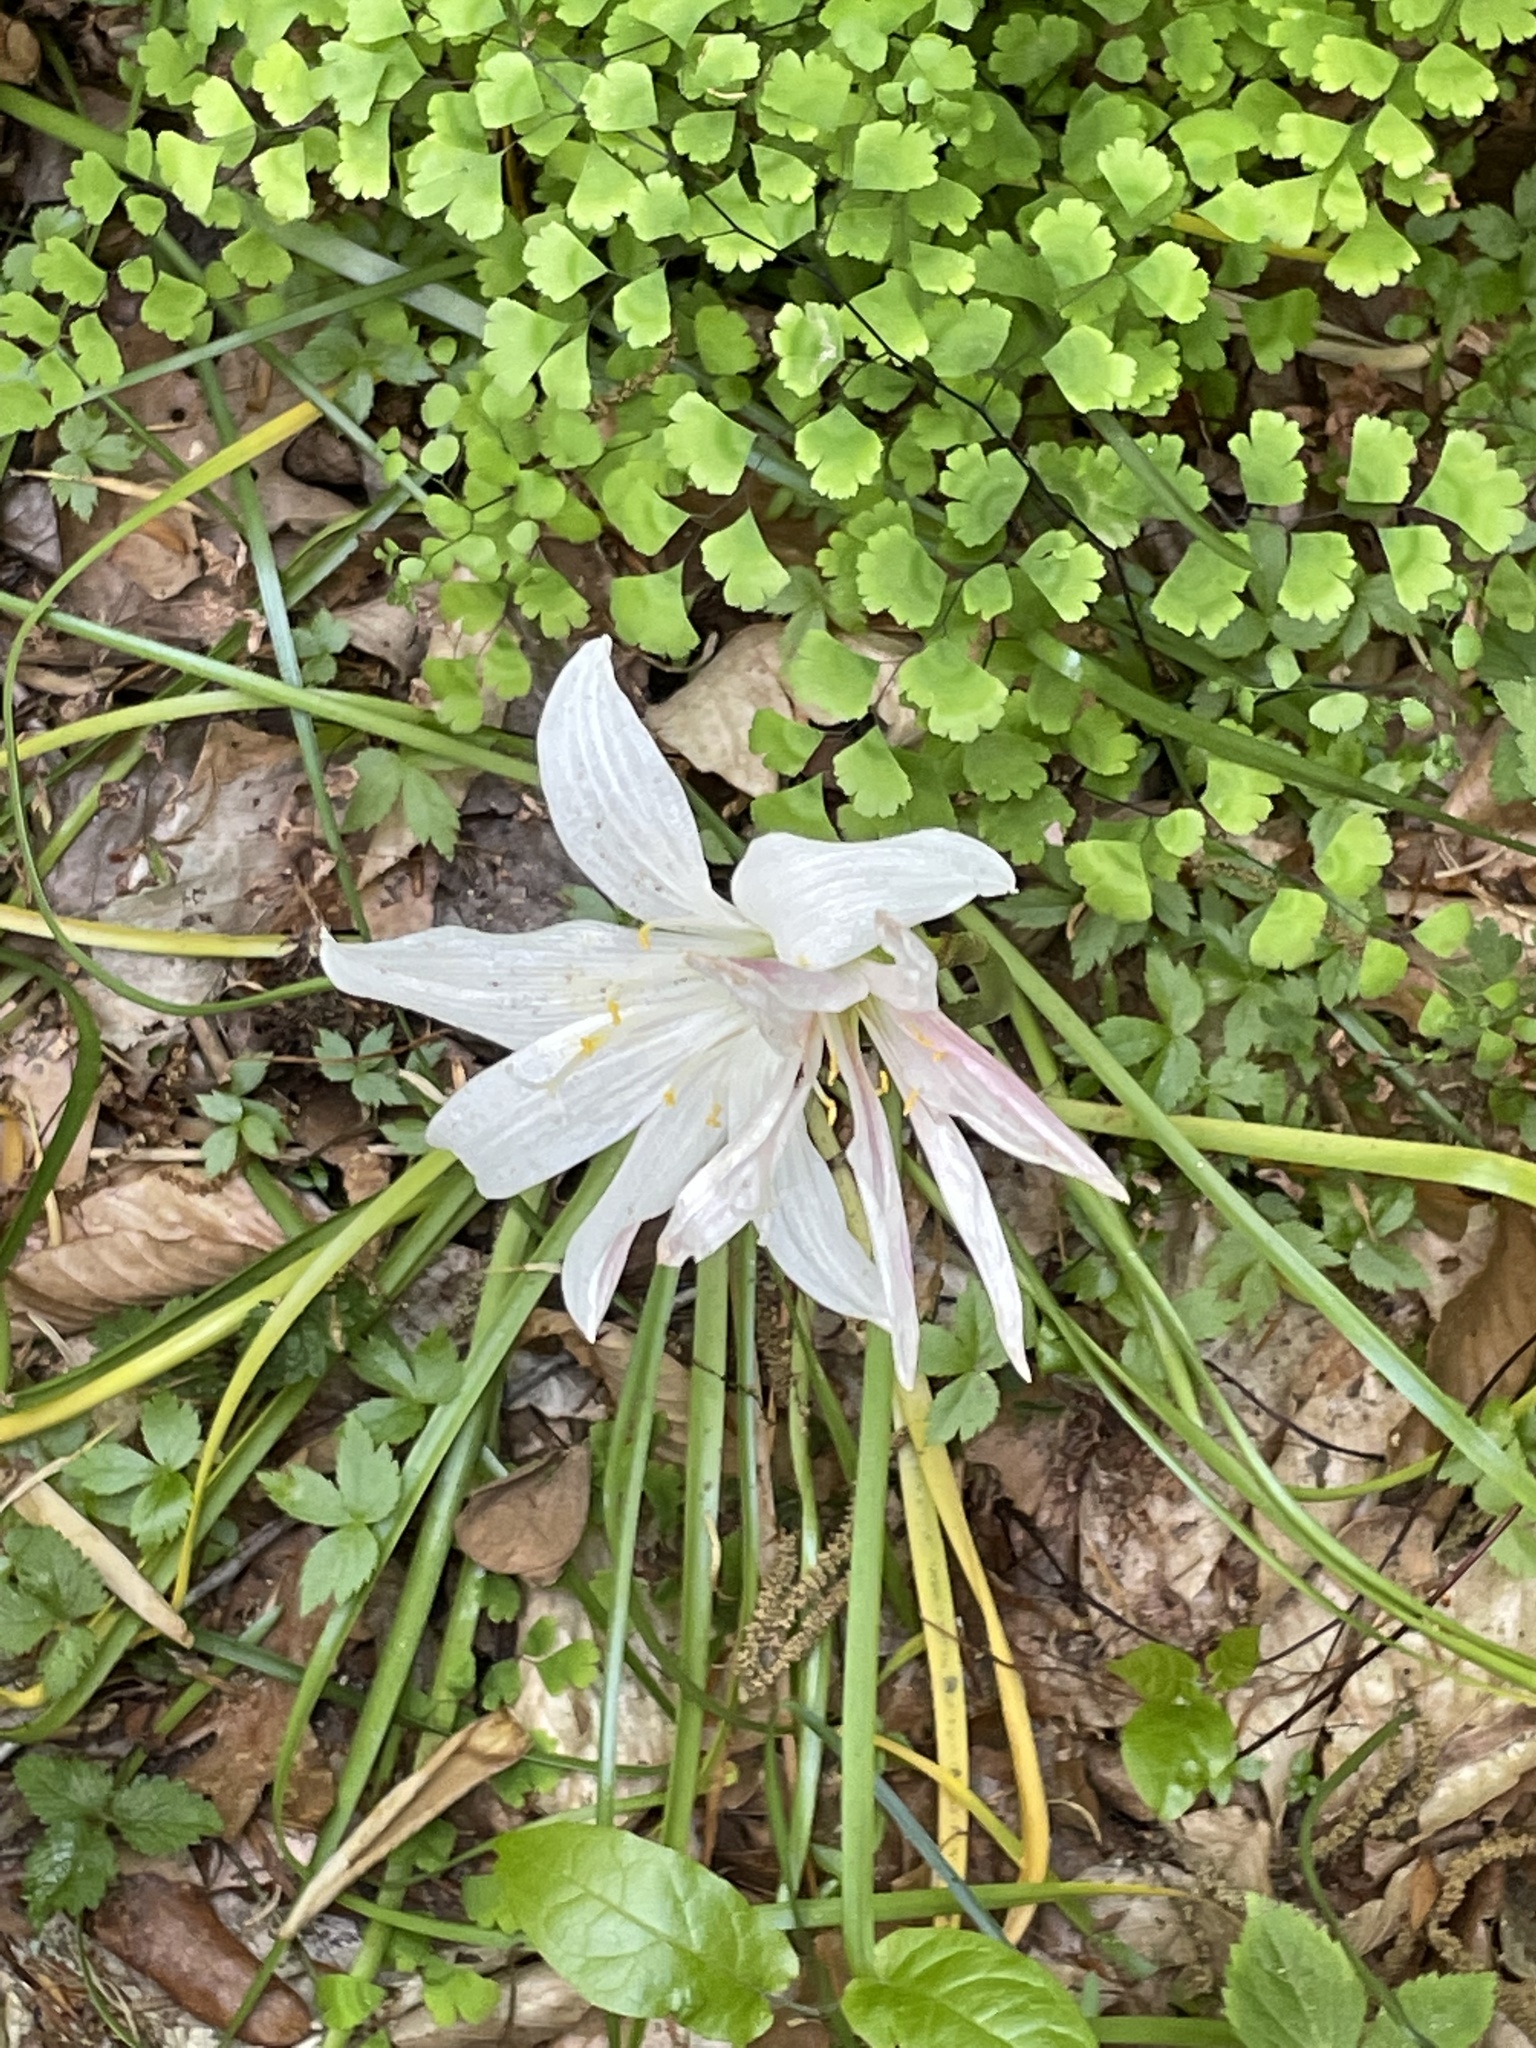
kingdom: Plantae
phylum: Tracheophyta
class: Liliopsida
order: Asparagales
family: Amaryllidaceae
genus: Zephyranthes
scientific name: Zephyranthes atamasco
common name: Atamasco lily
